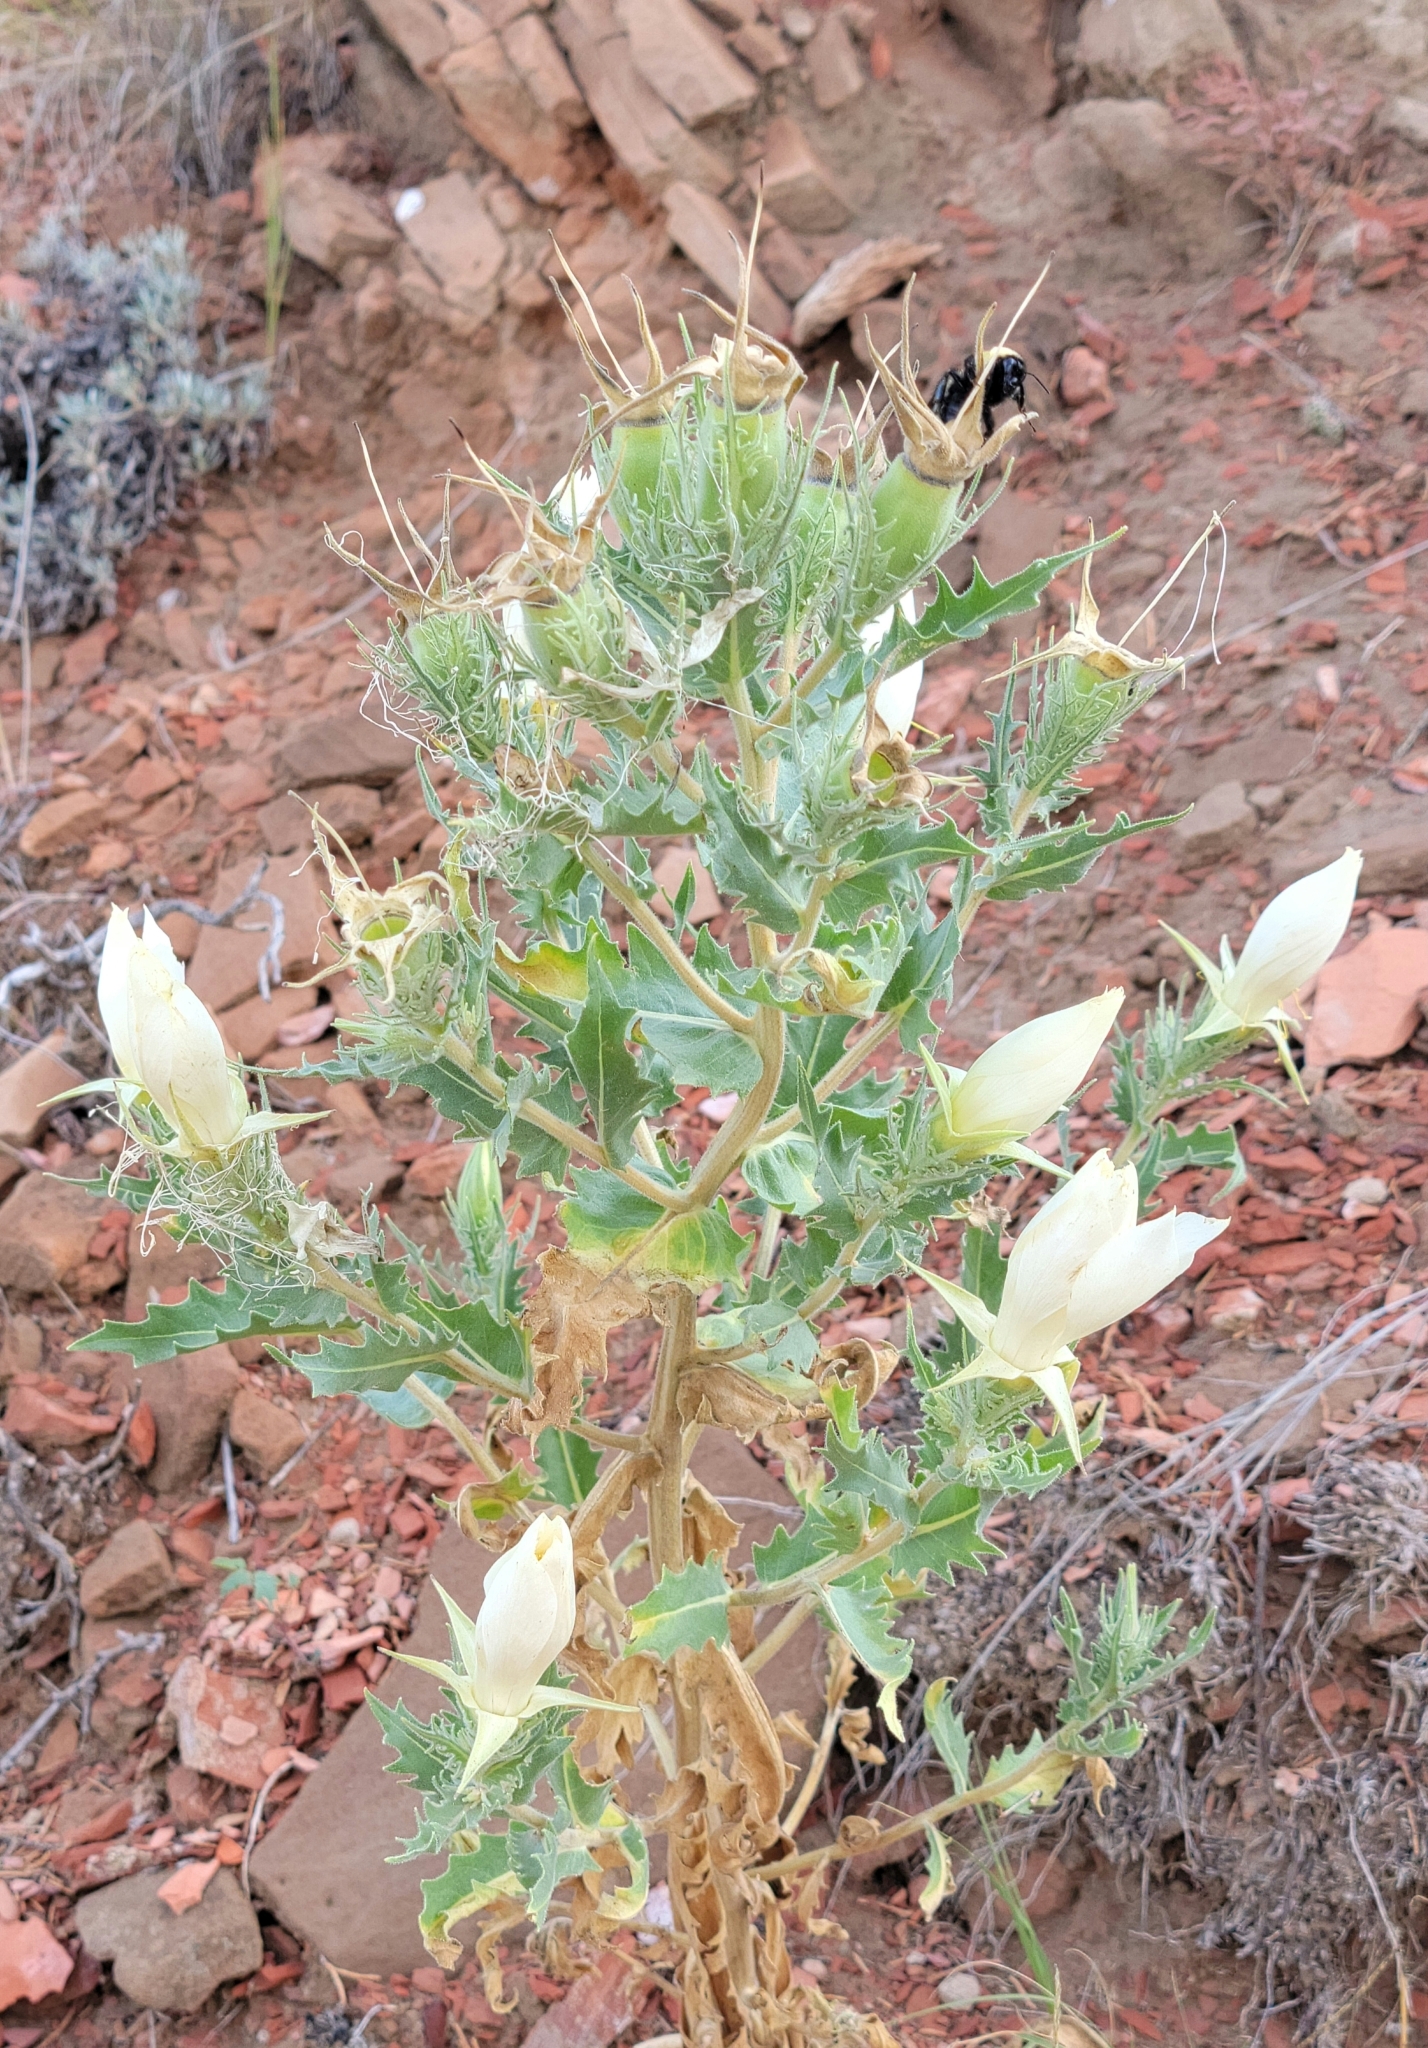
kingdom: Plantae
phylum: Tracheophyta
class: Magnoliopsida
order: Cornales
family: Loasaceae
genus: Mentzelia
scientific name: Mentzelia decapetala
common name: Gumbo-lily
